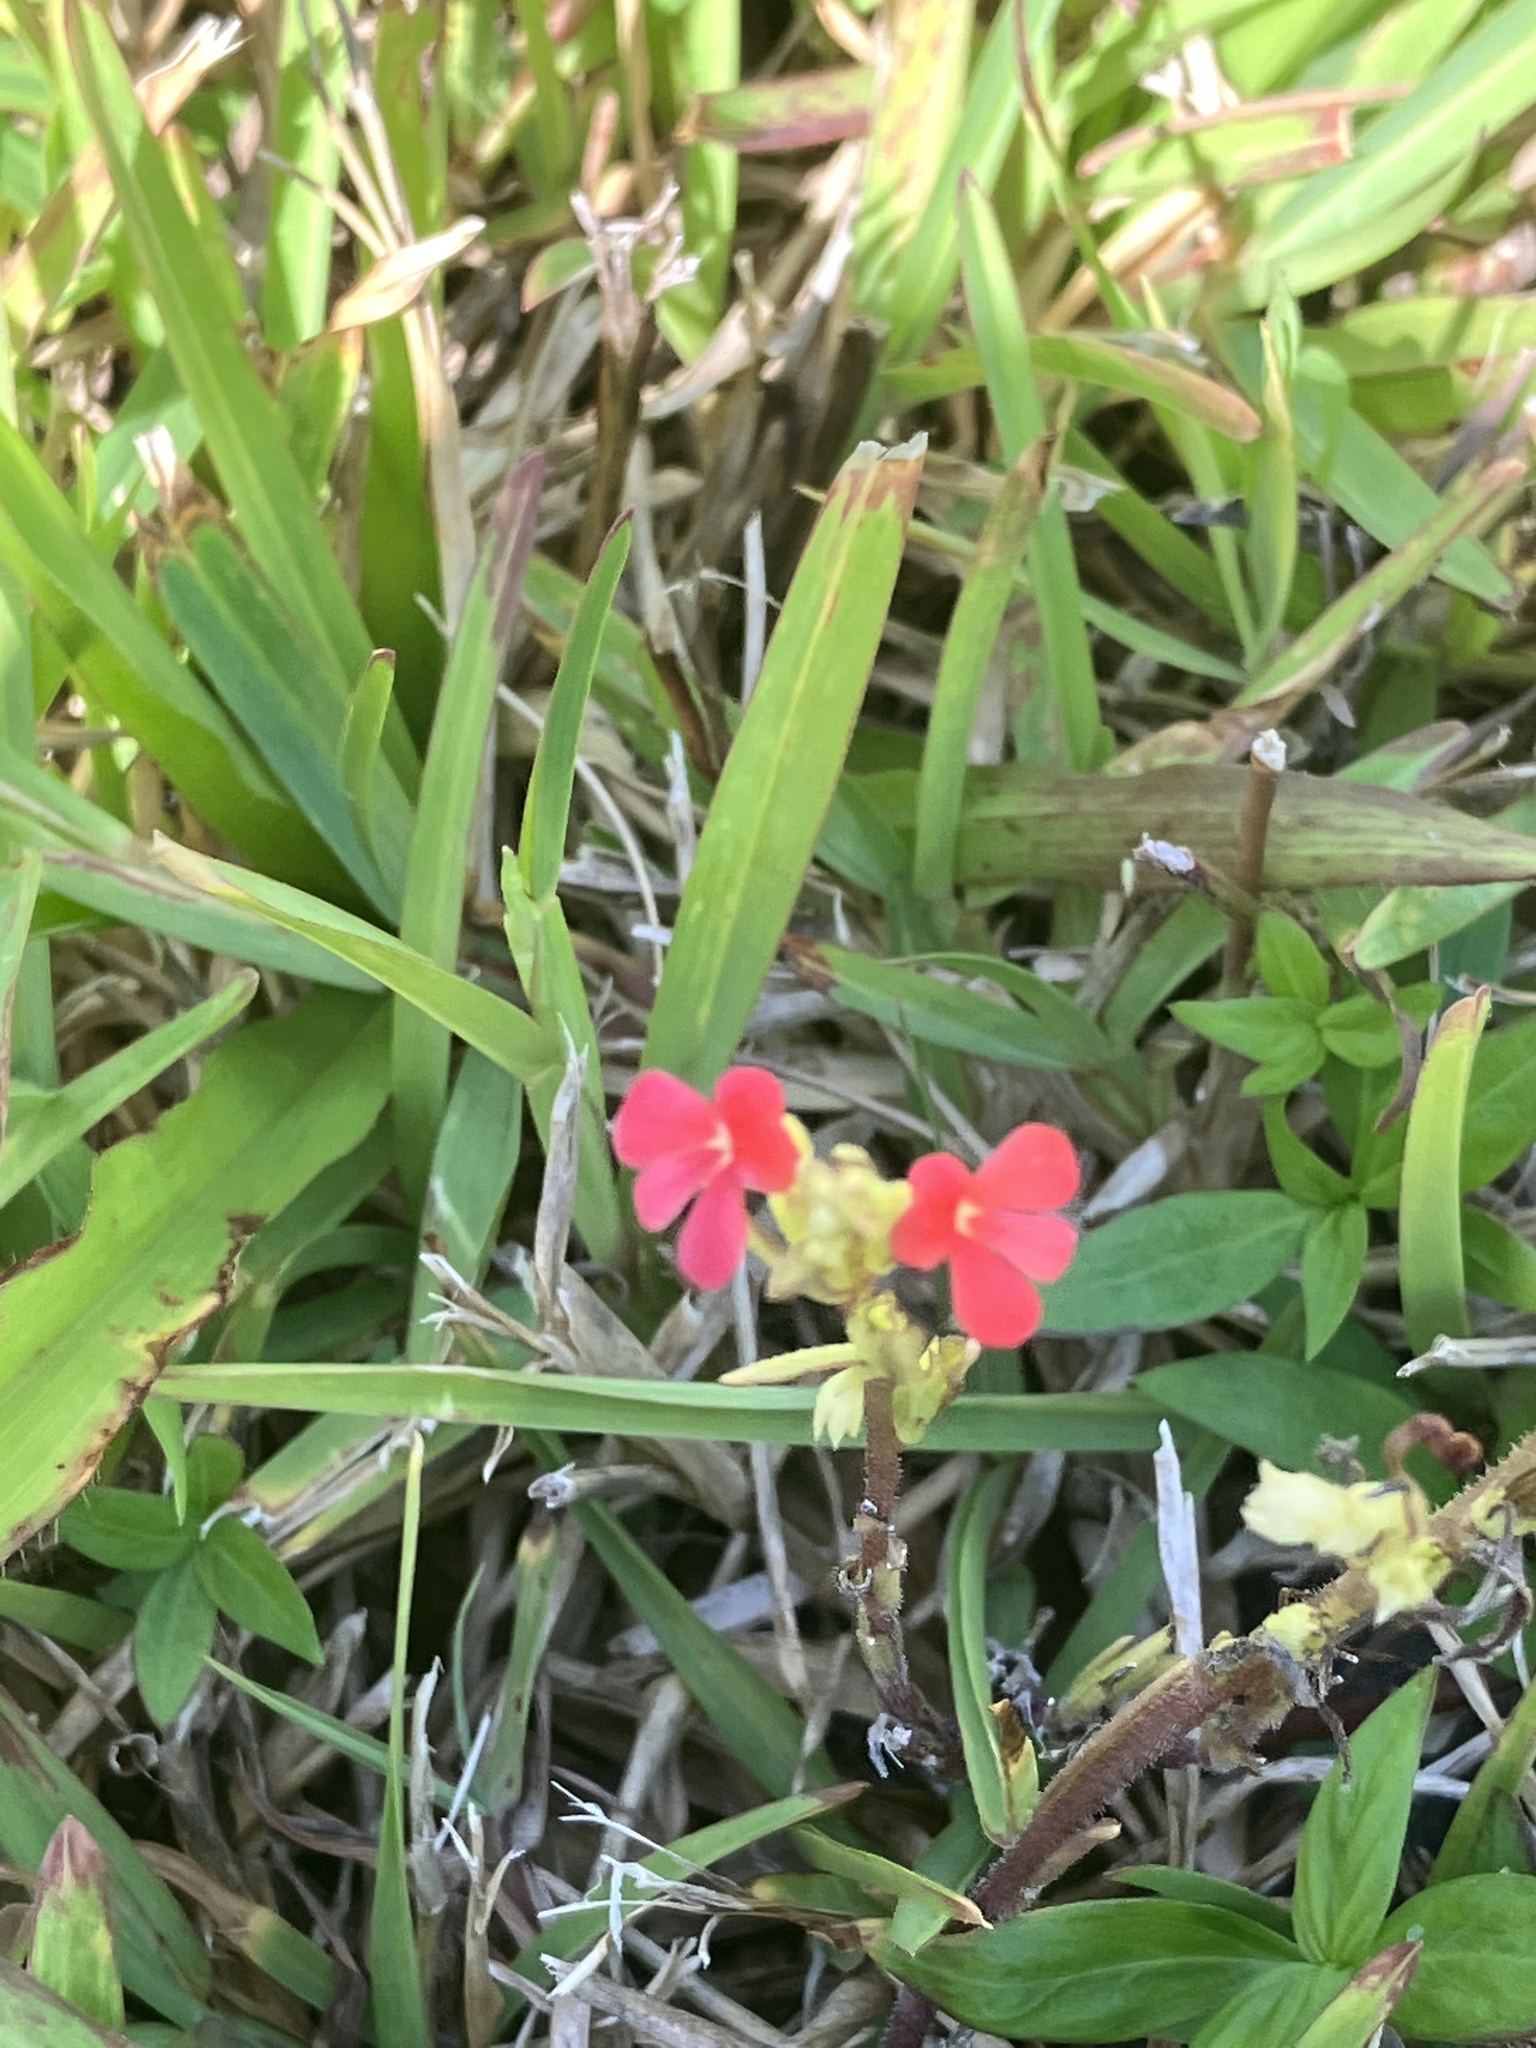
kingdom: Plantae
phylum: Tracheophyta
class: Magnoliopsida
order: Lamiales
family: Orobanchaceae
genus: Striga
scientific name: Striga asiatica
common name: Asiatic witchweed
